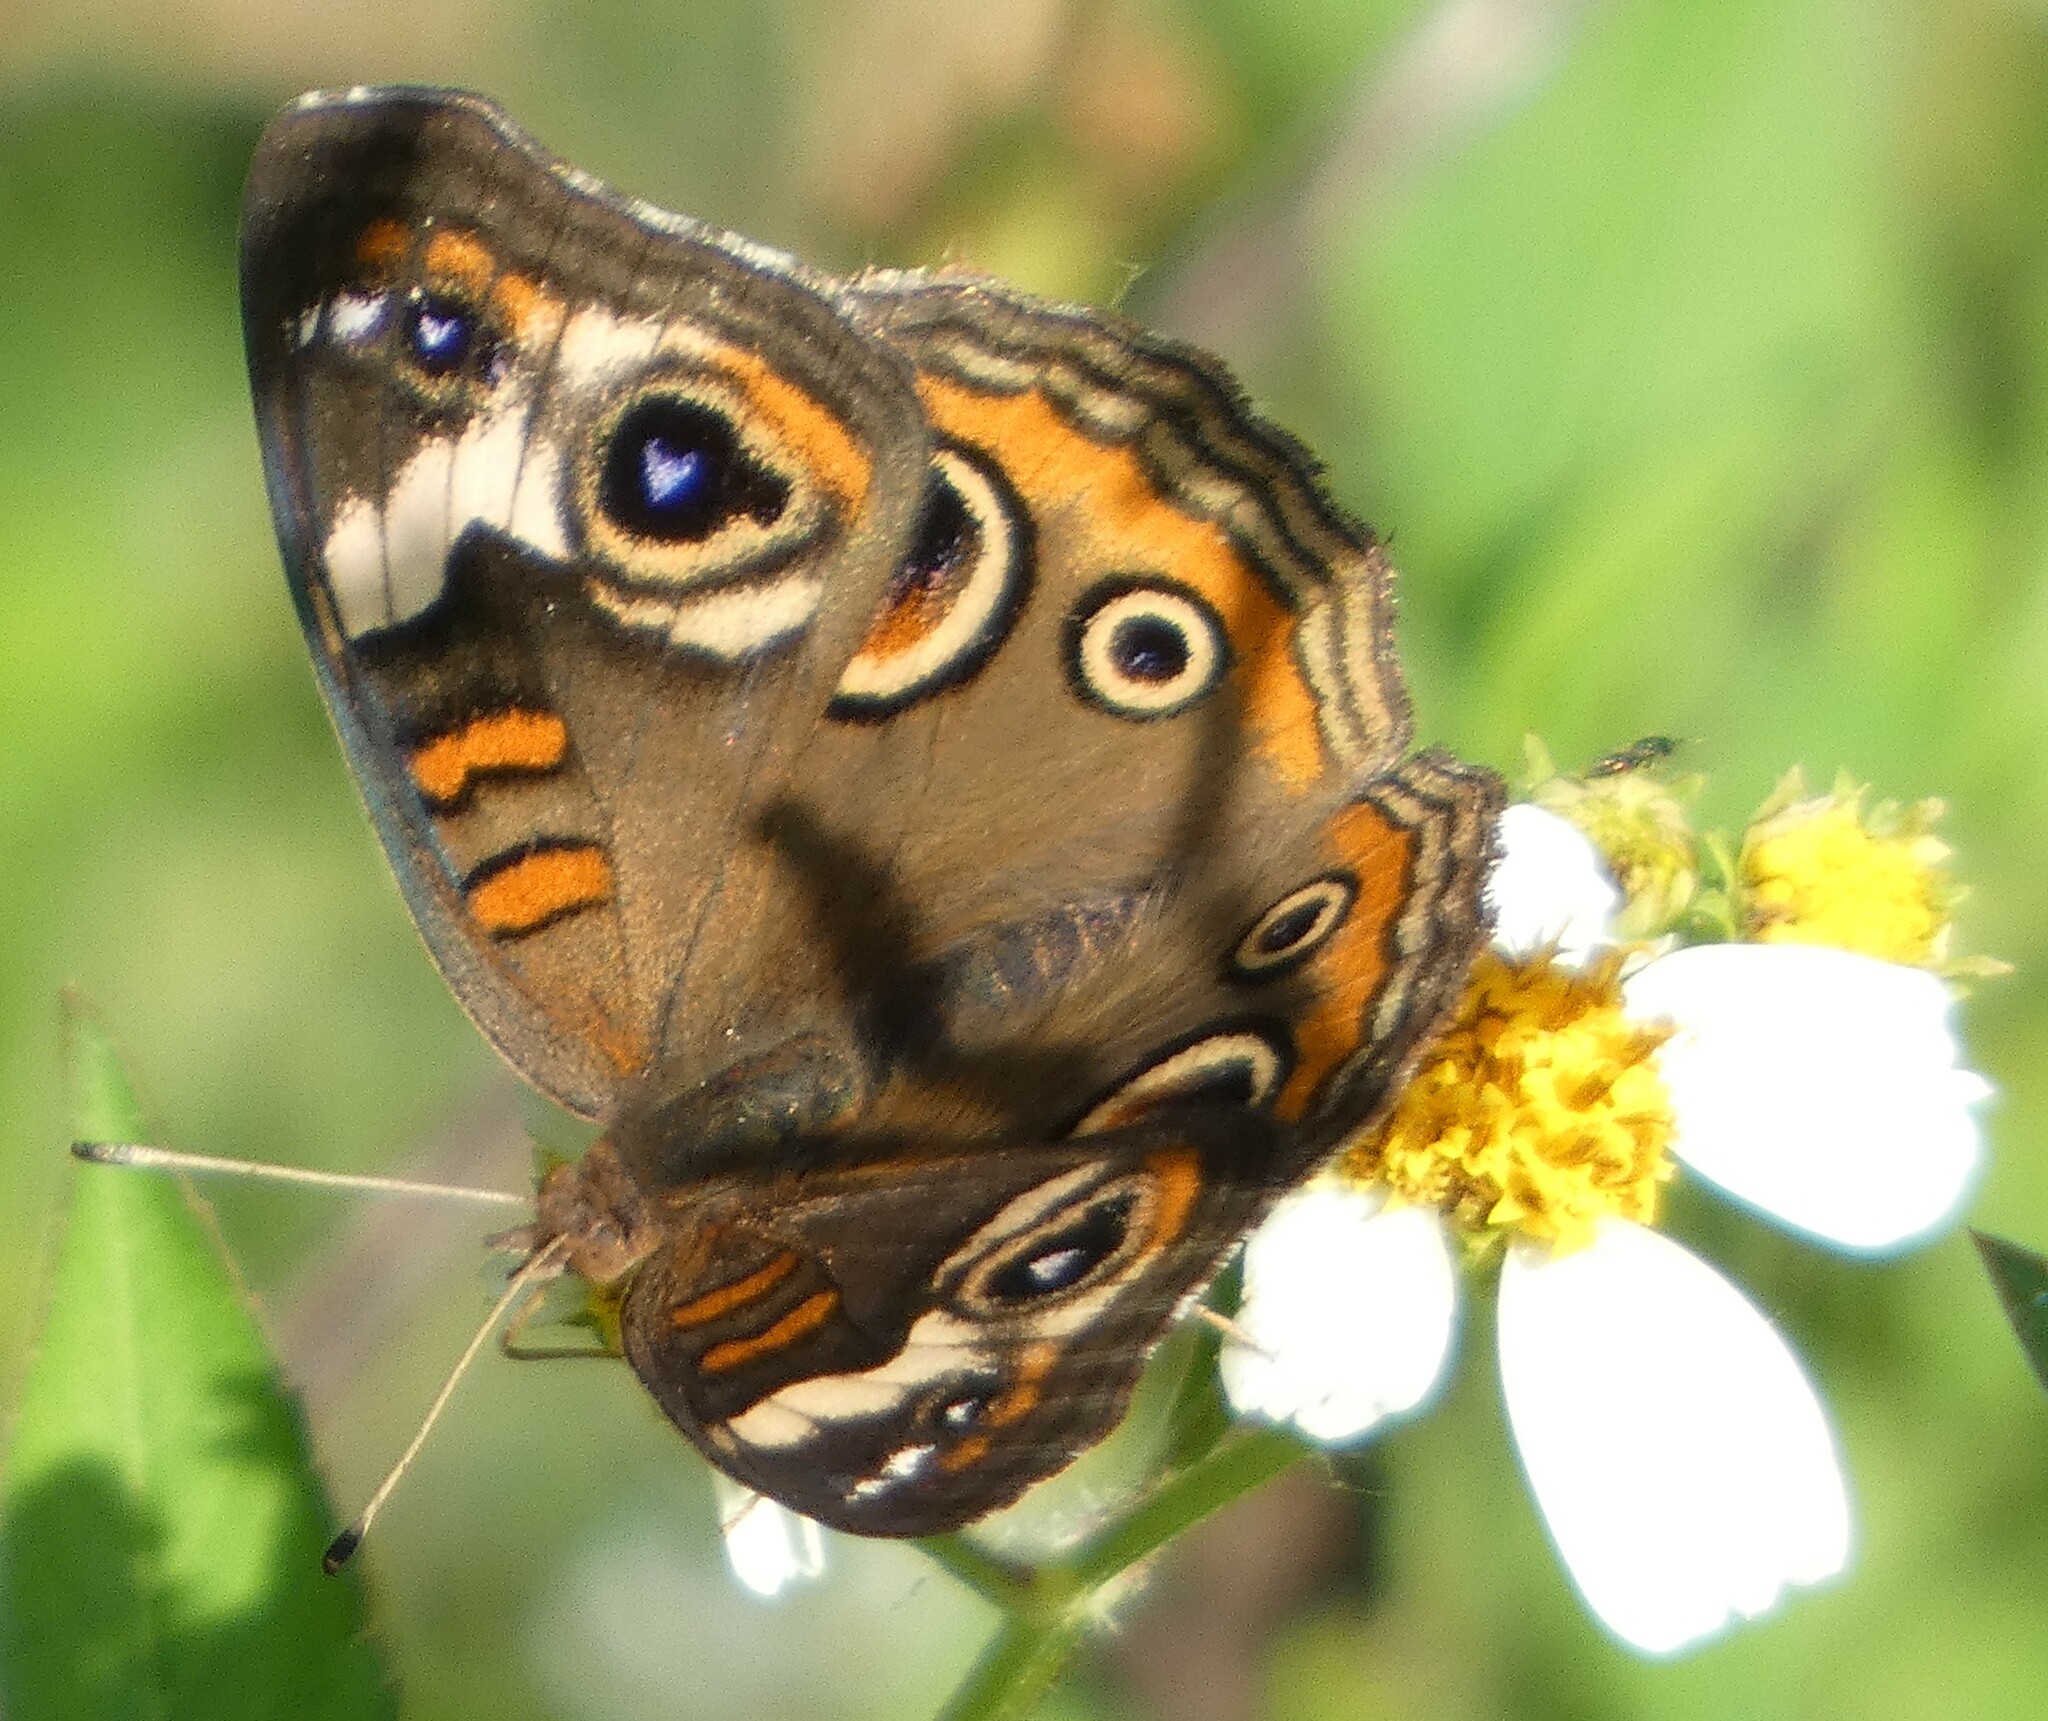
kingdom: Animalia
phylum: Arthropoda
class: Insecta
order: Lepidoptera
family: Nymphalidae
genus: Junonia
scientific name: Junonia coenia
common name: Common buckeye
